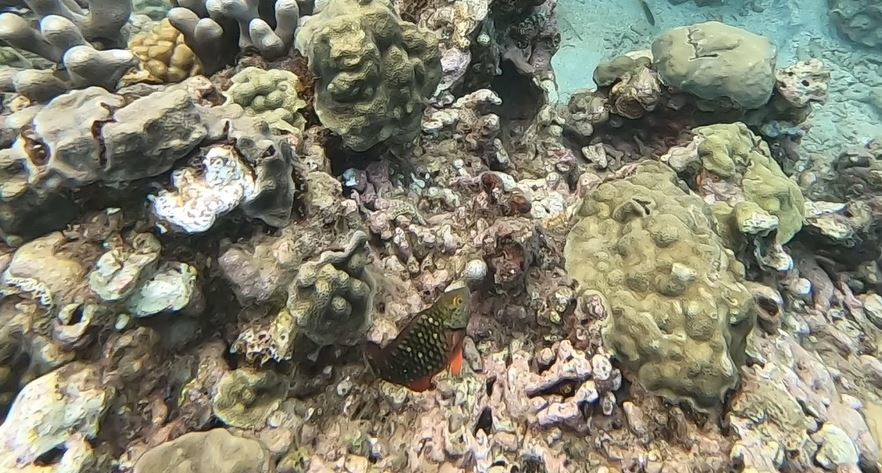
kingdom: Animalia
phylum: Chordata
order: Perciformes
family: Scaridae
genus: Sparisoma
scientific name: Sparisoma viride
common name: Stoplight parrotfish
